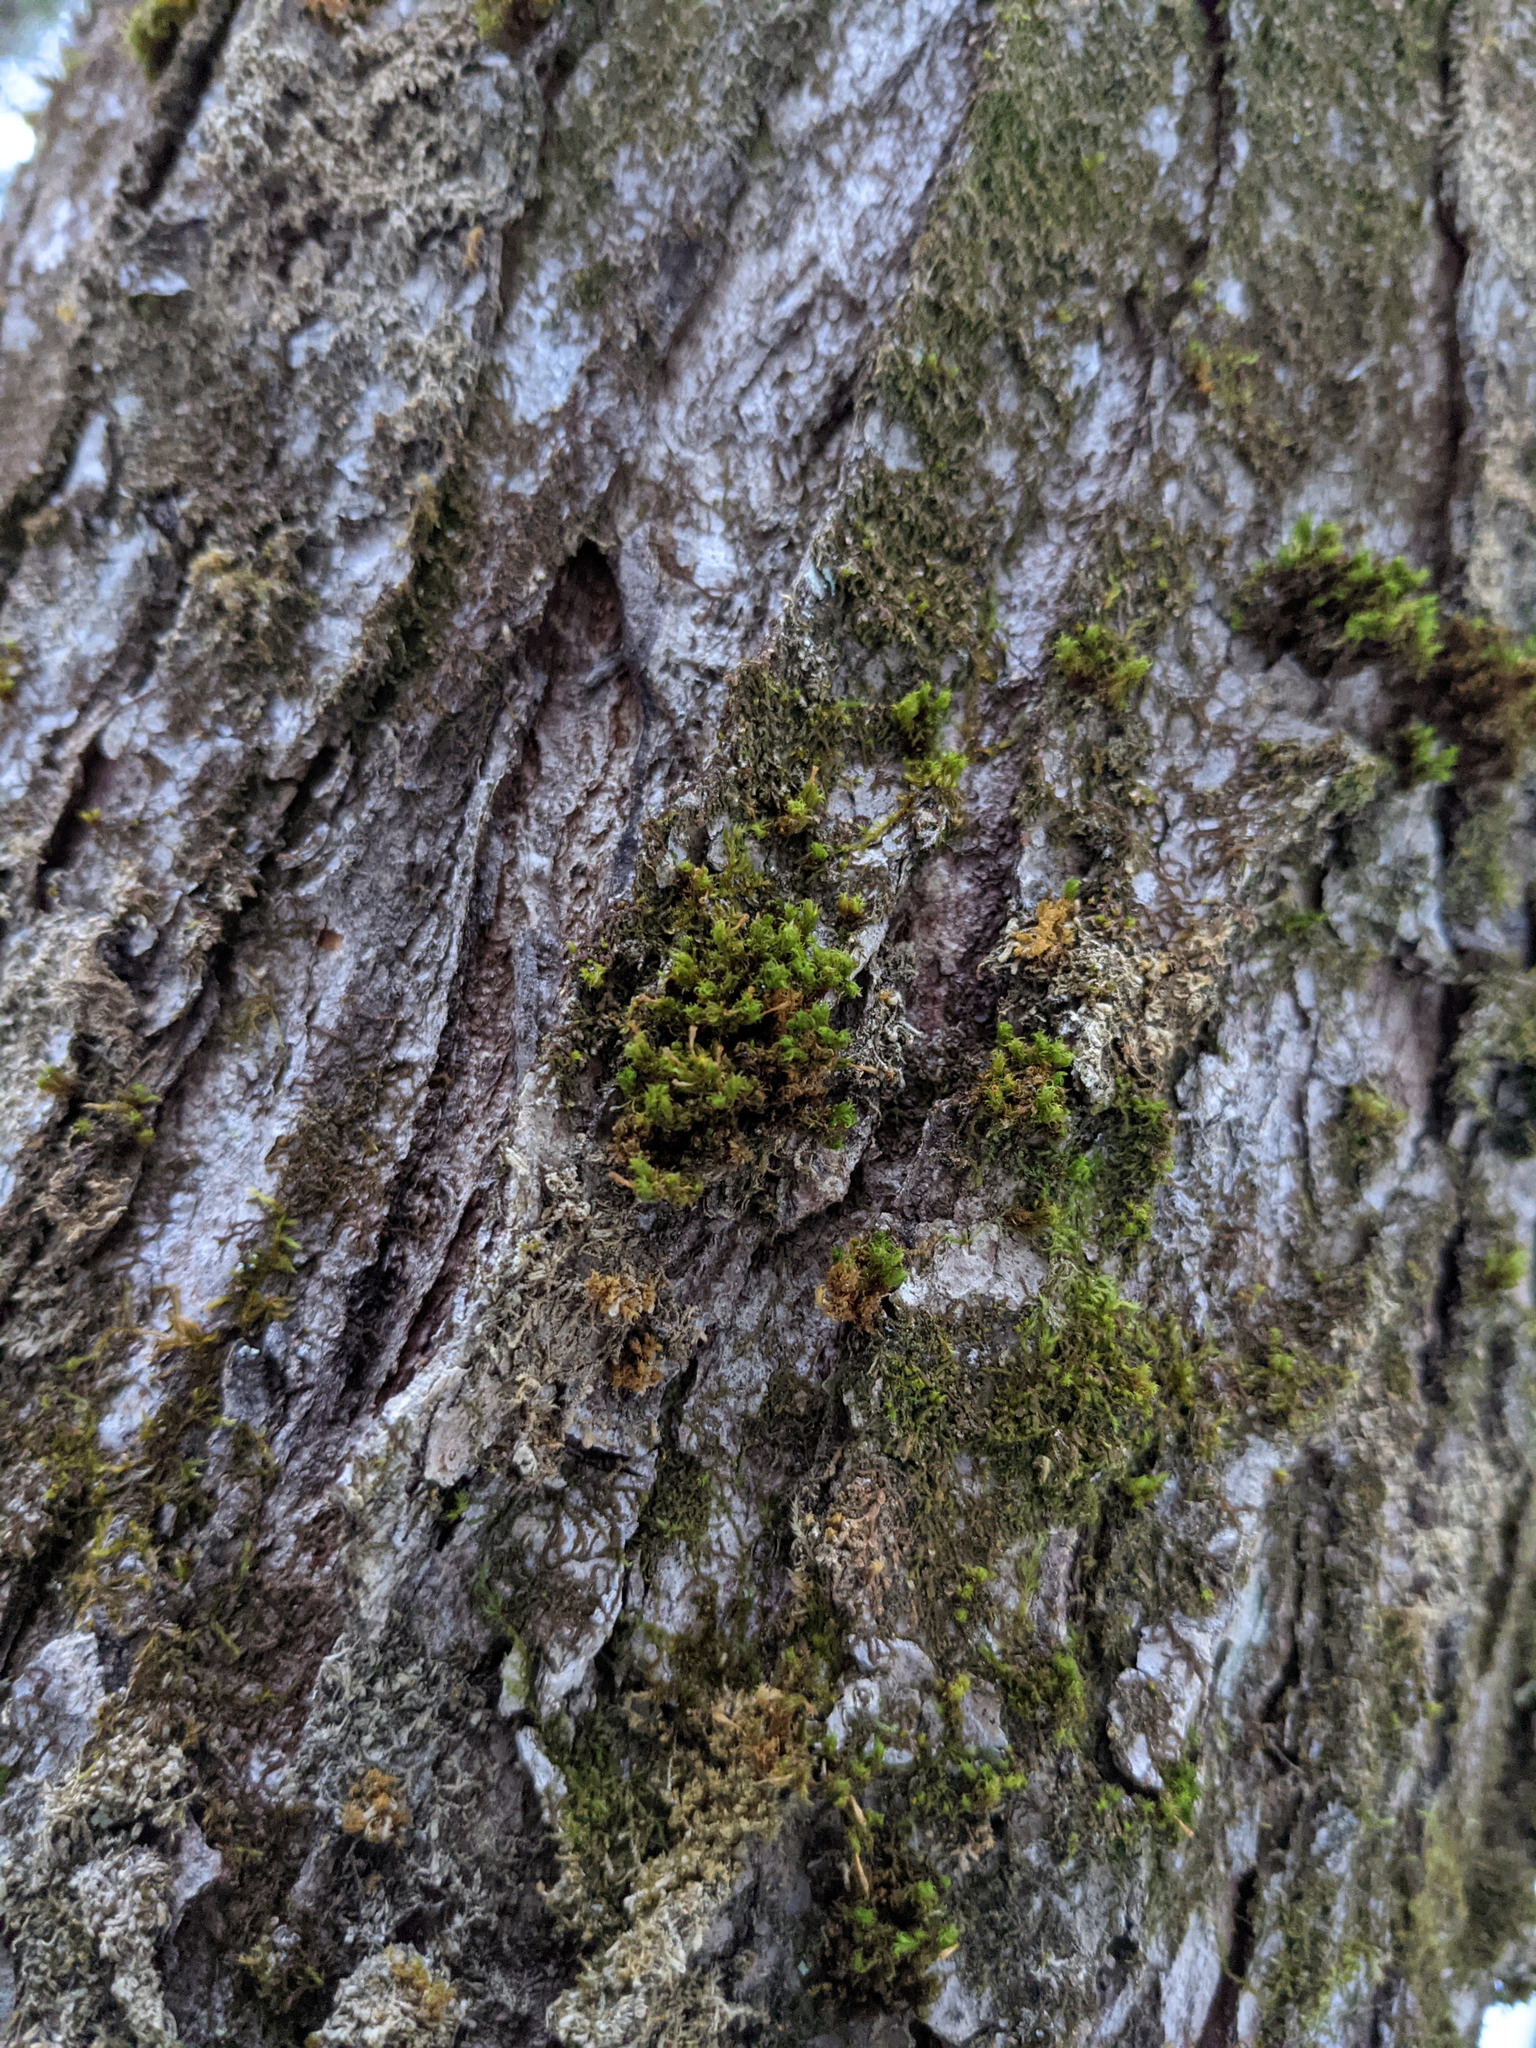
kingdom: Plantae
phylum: Bryophyta
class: Bryopsida
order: Orthotrichales
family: Orthotrichaceae
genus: Ulota
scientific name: Ulota crispa
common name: Crisped pincushion moss
